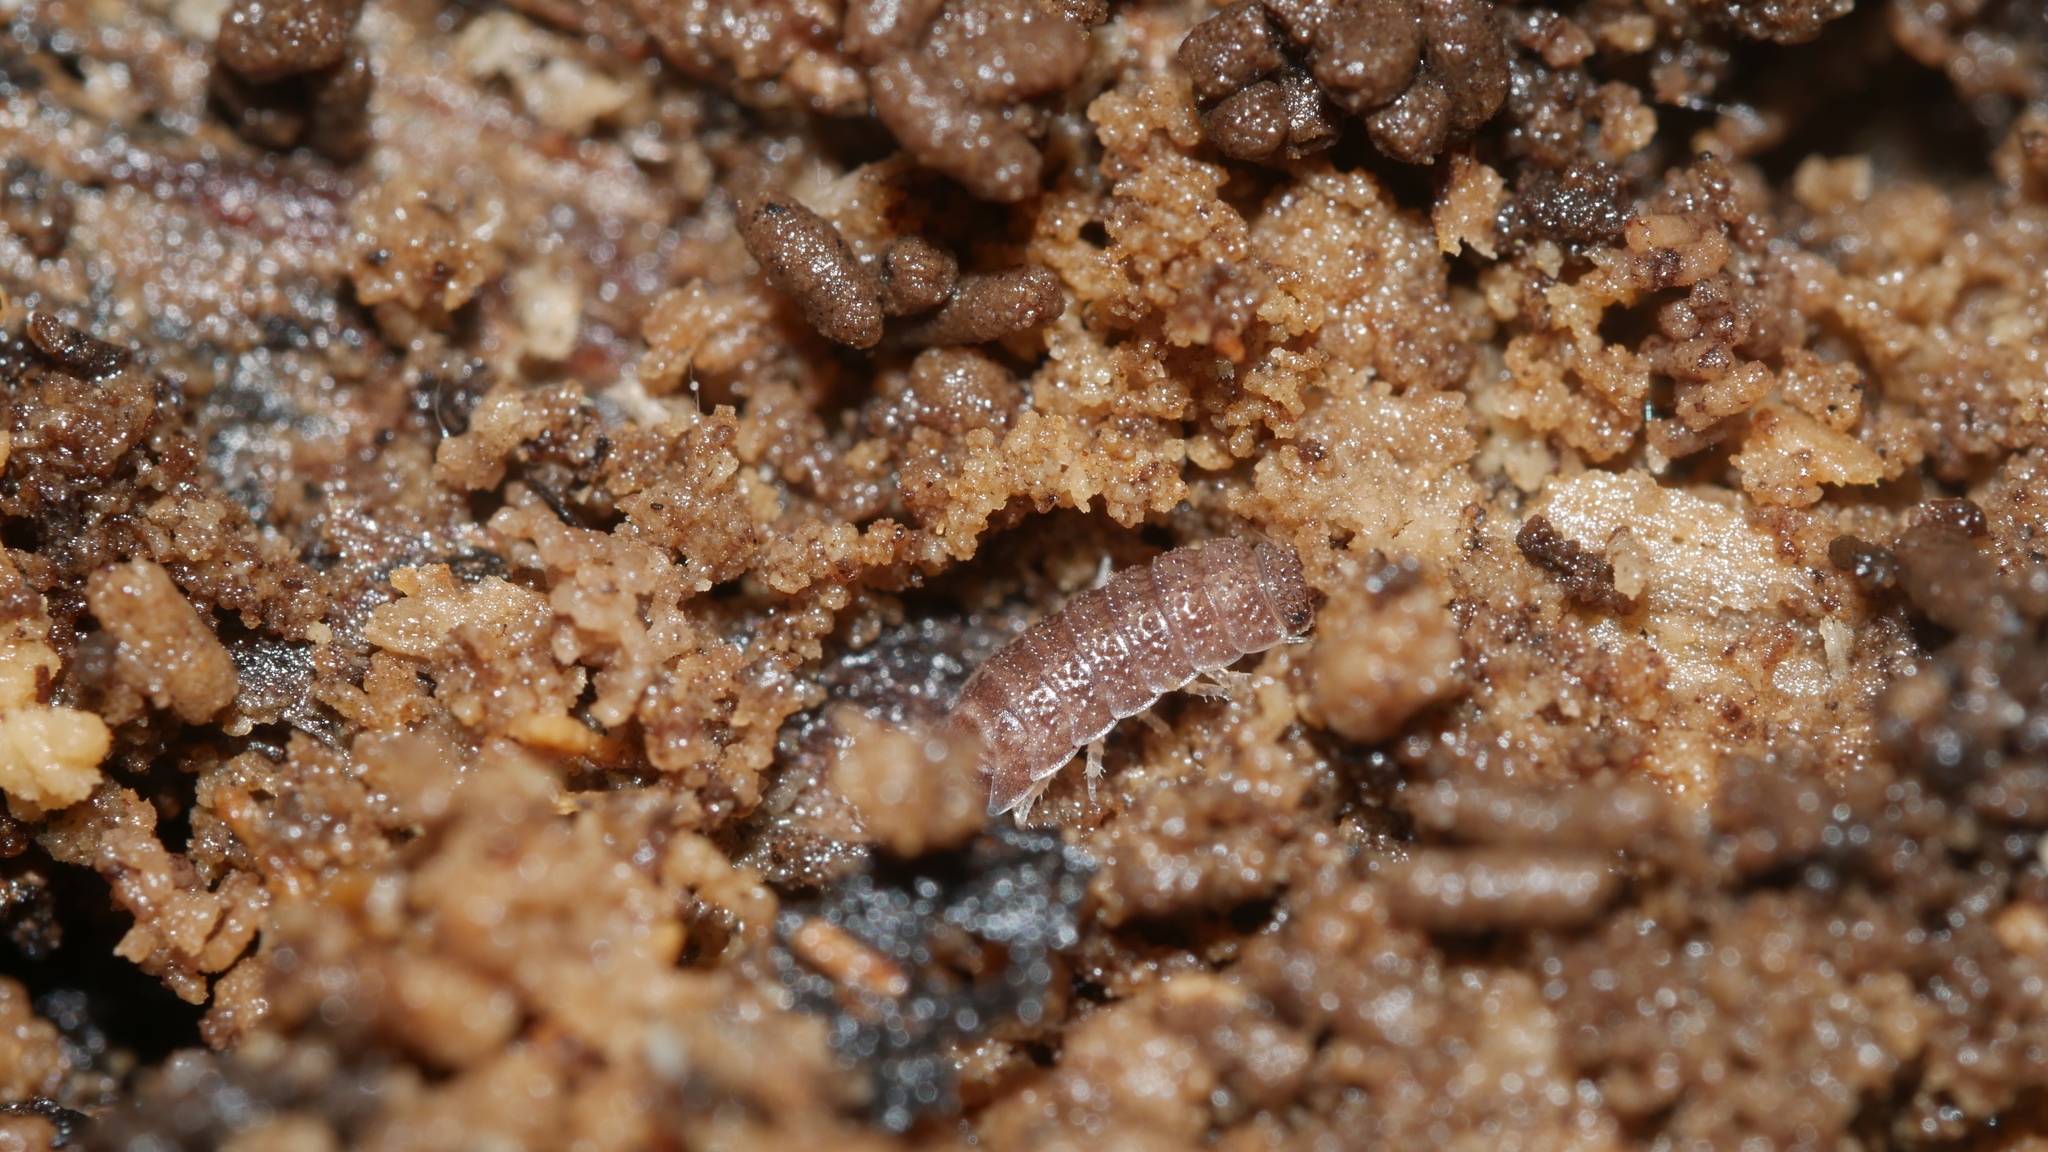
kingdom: Animalia
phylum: Arthropoda
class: Malacostraca
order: Isopoda
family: Trichoniscidae
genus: Miktoniscus
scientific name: Miktoniscus spinosus
